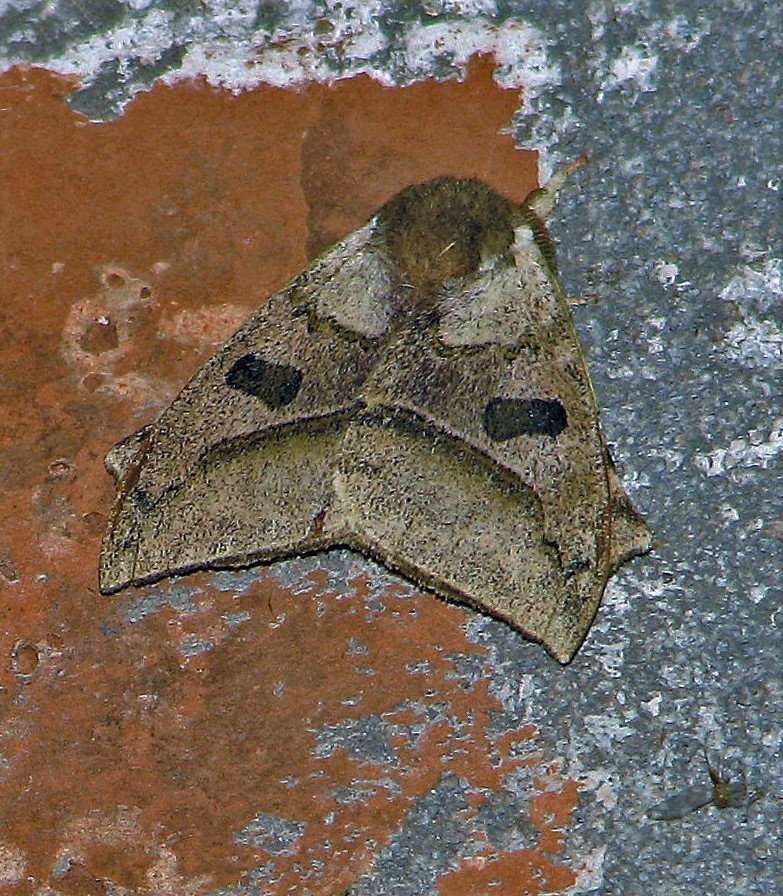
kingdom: Animalia
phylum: Arthropoda
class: Insecta
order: Lepidoptera
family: Saturniidae
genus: Automerella
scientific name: Automerella aurora
